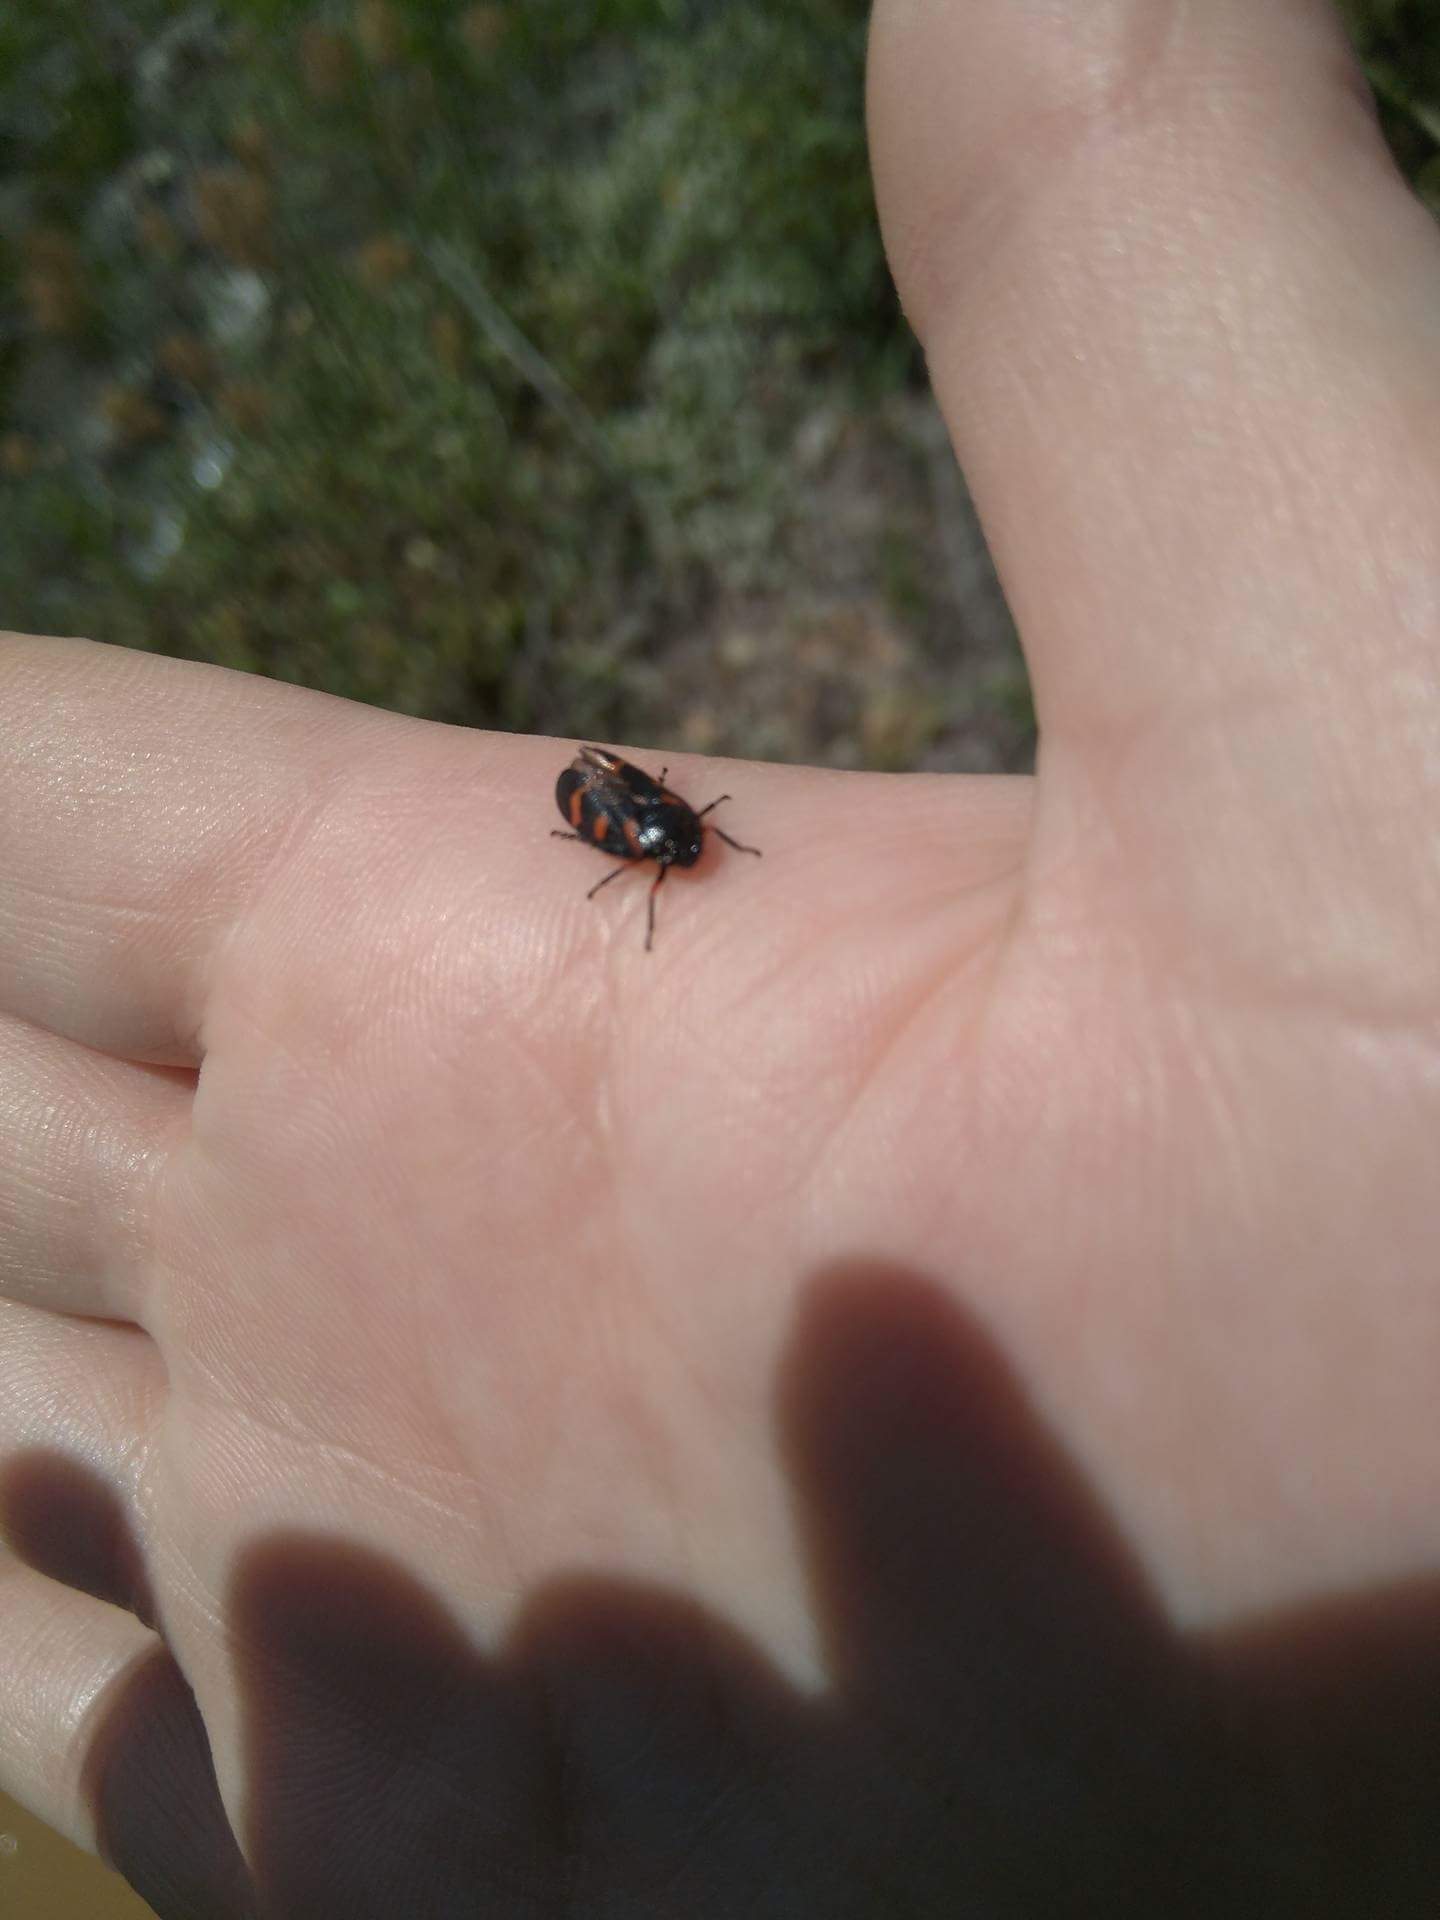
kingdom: Animalia
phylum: Arthropoda
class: Insecta
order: Hemiptera
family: Cercopidae
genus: Cercopis
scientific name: Cercopis intermedia
